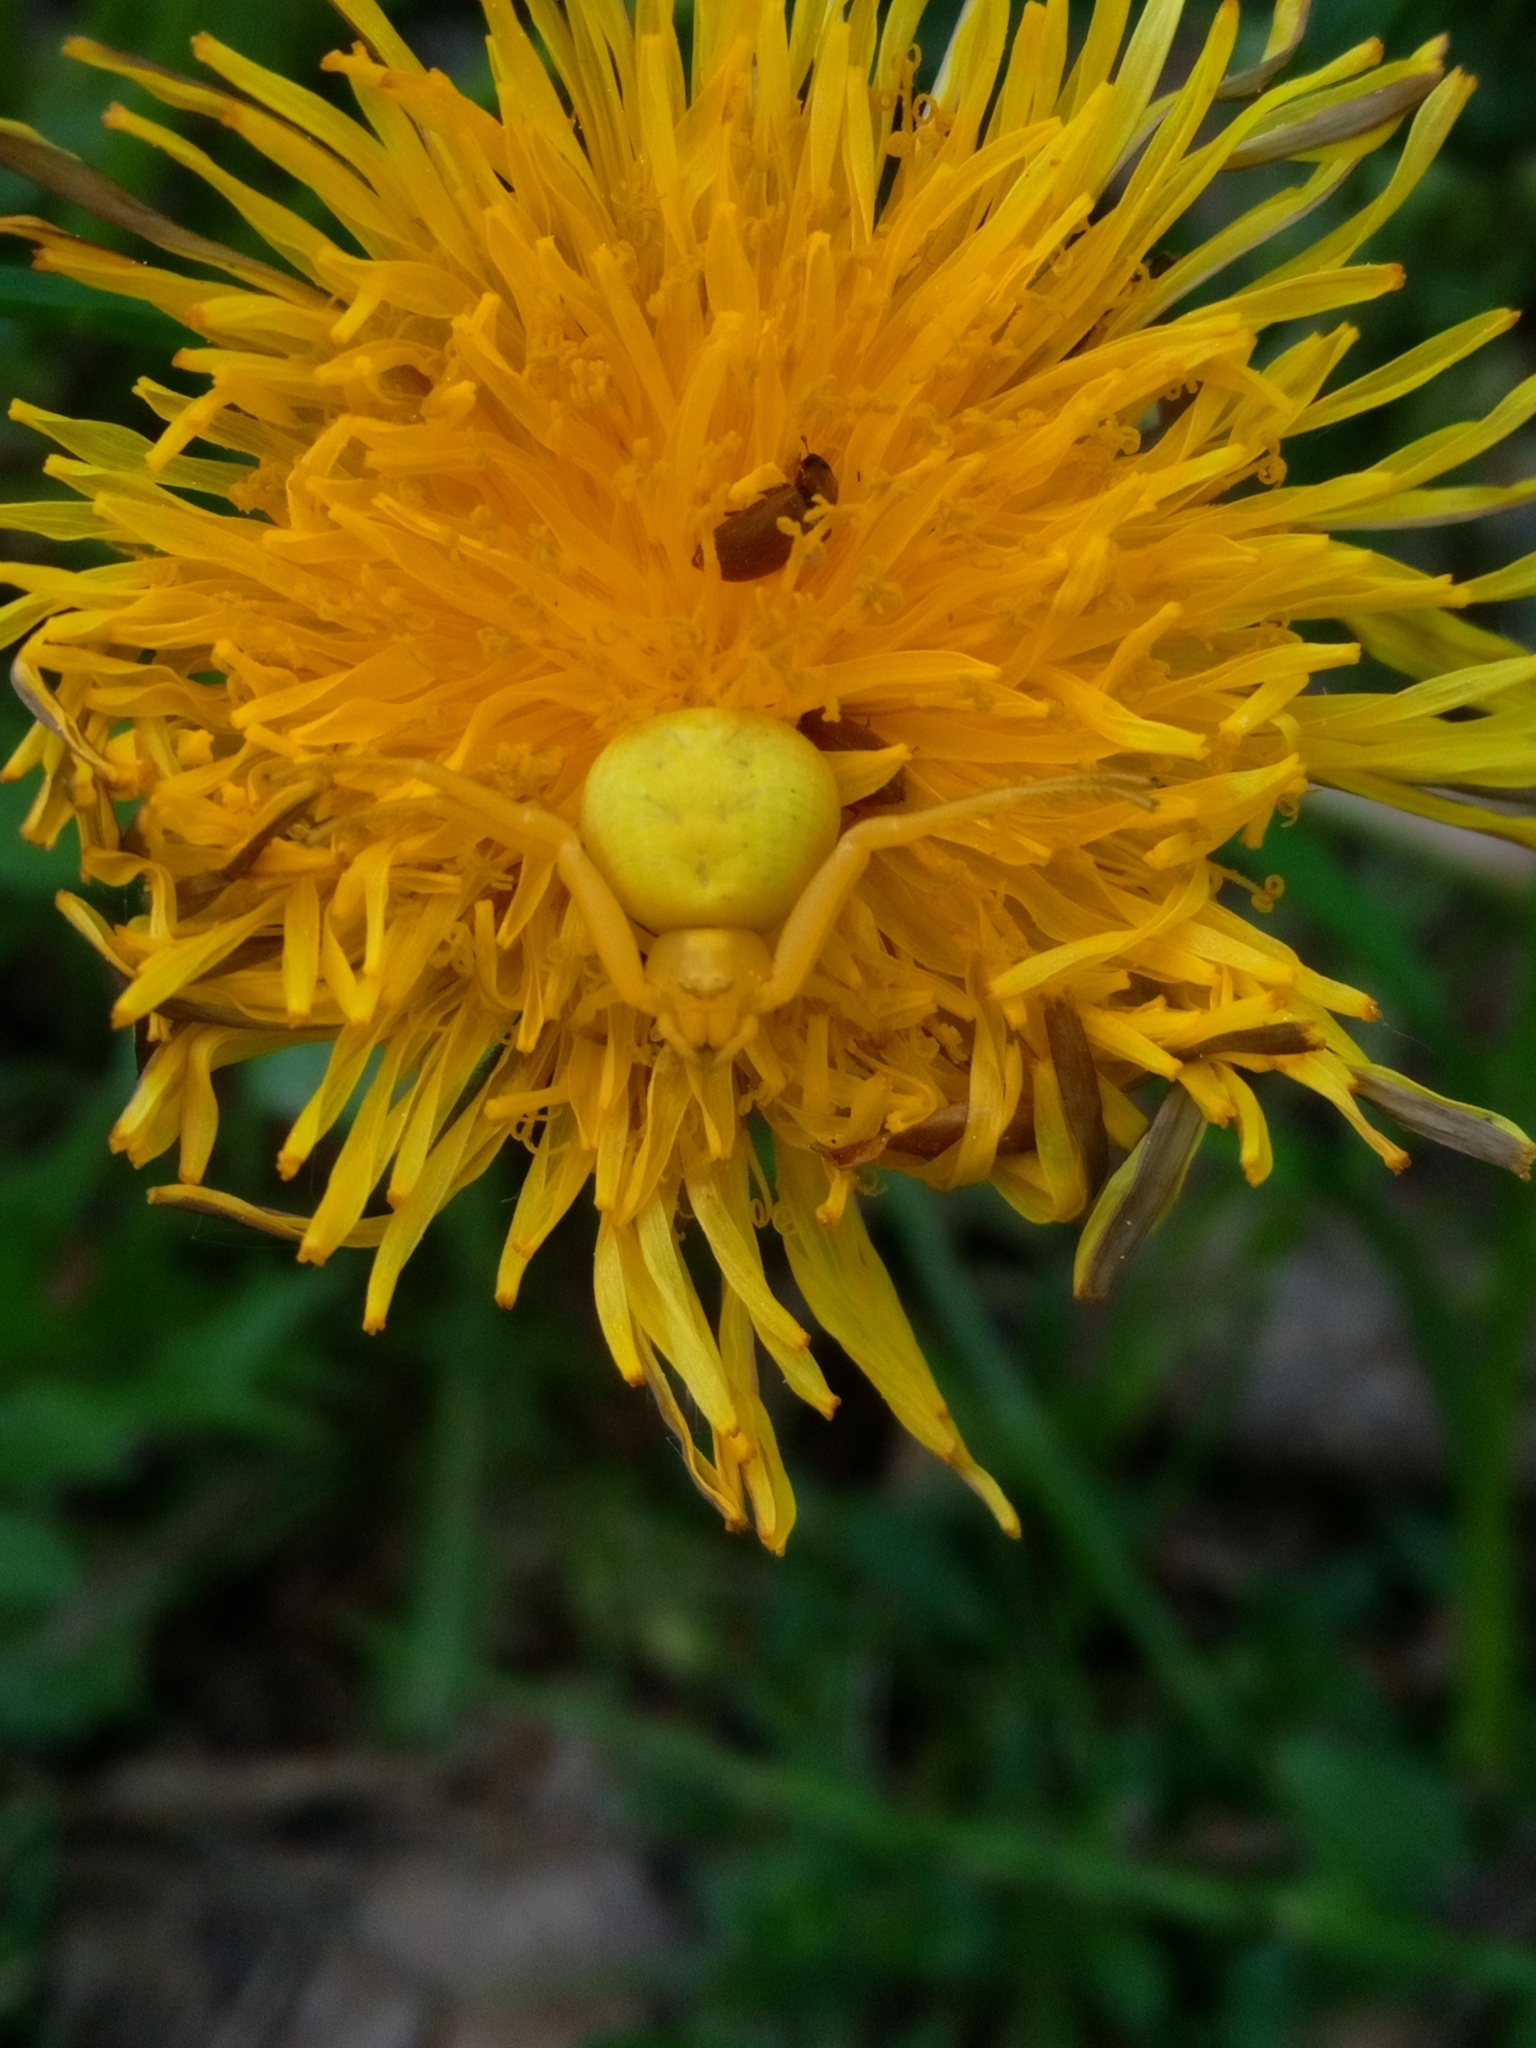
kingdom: Animalia
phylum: Arthropoda
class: Arachnida
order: Araneae
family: Thomisidae
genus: Misumena
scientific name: Misumena vatia
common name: Goldenrod crab spider
